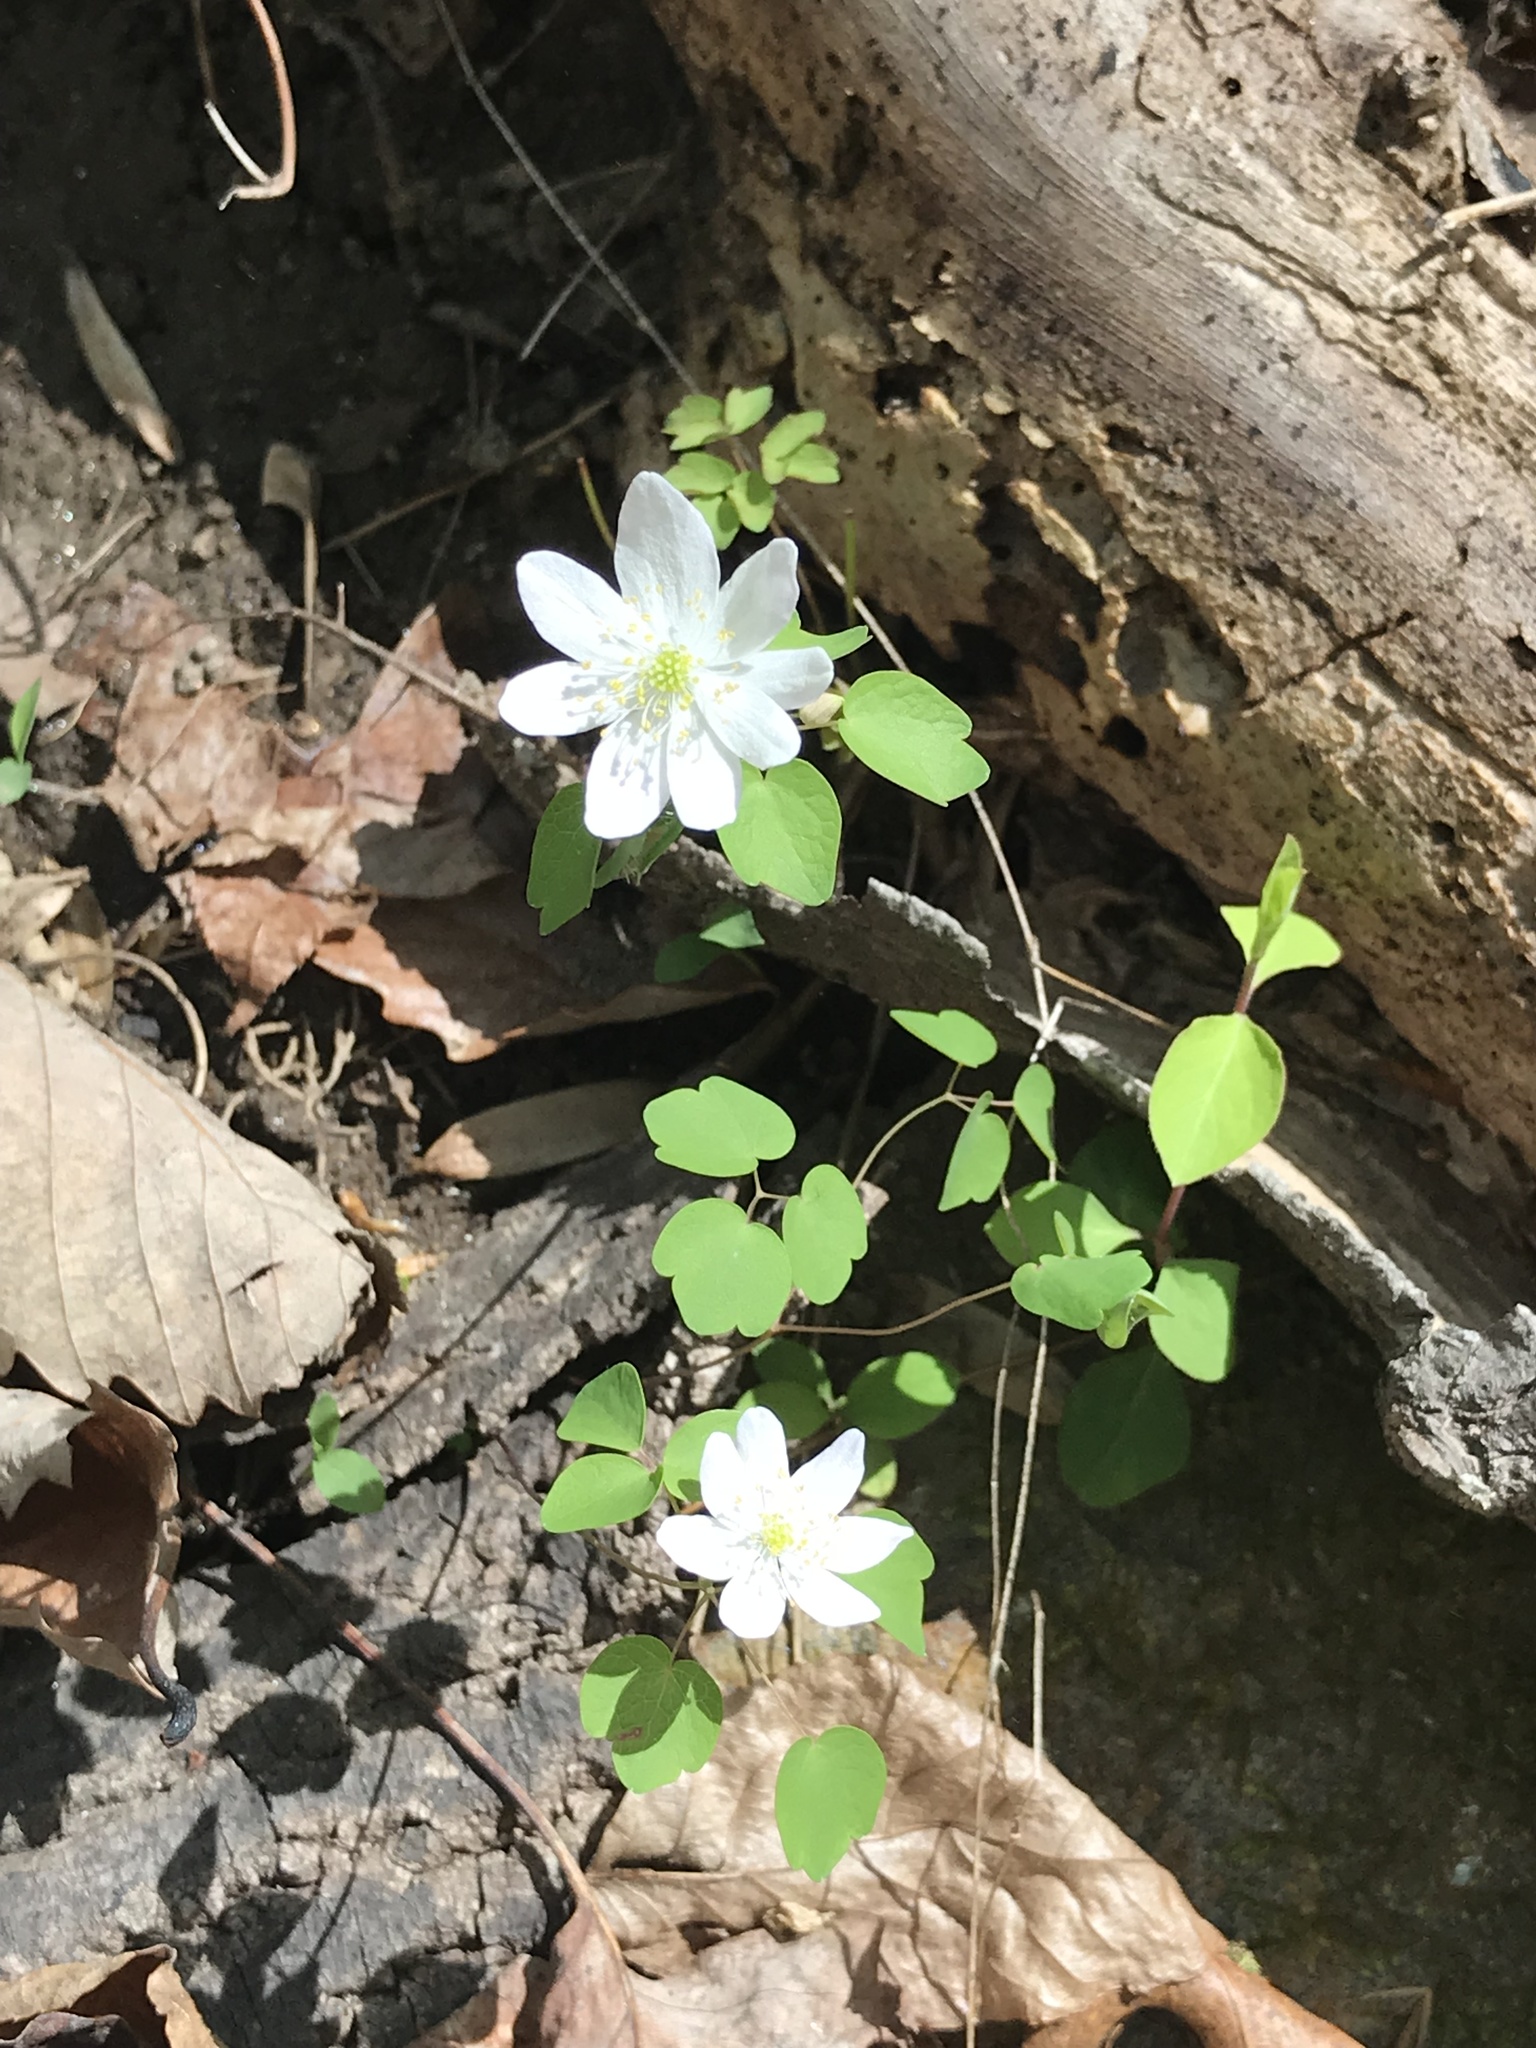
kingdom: Plantae
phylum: Tracheophyta
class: Magnoliopsida
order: Ranunculales
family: Ranunculaceae
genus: Thalictrum
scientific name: Thalictrum thalictroides
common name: Rue-anemone
